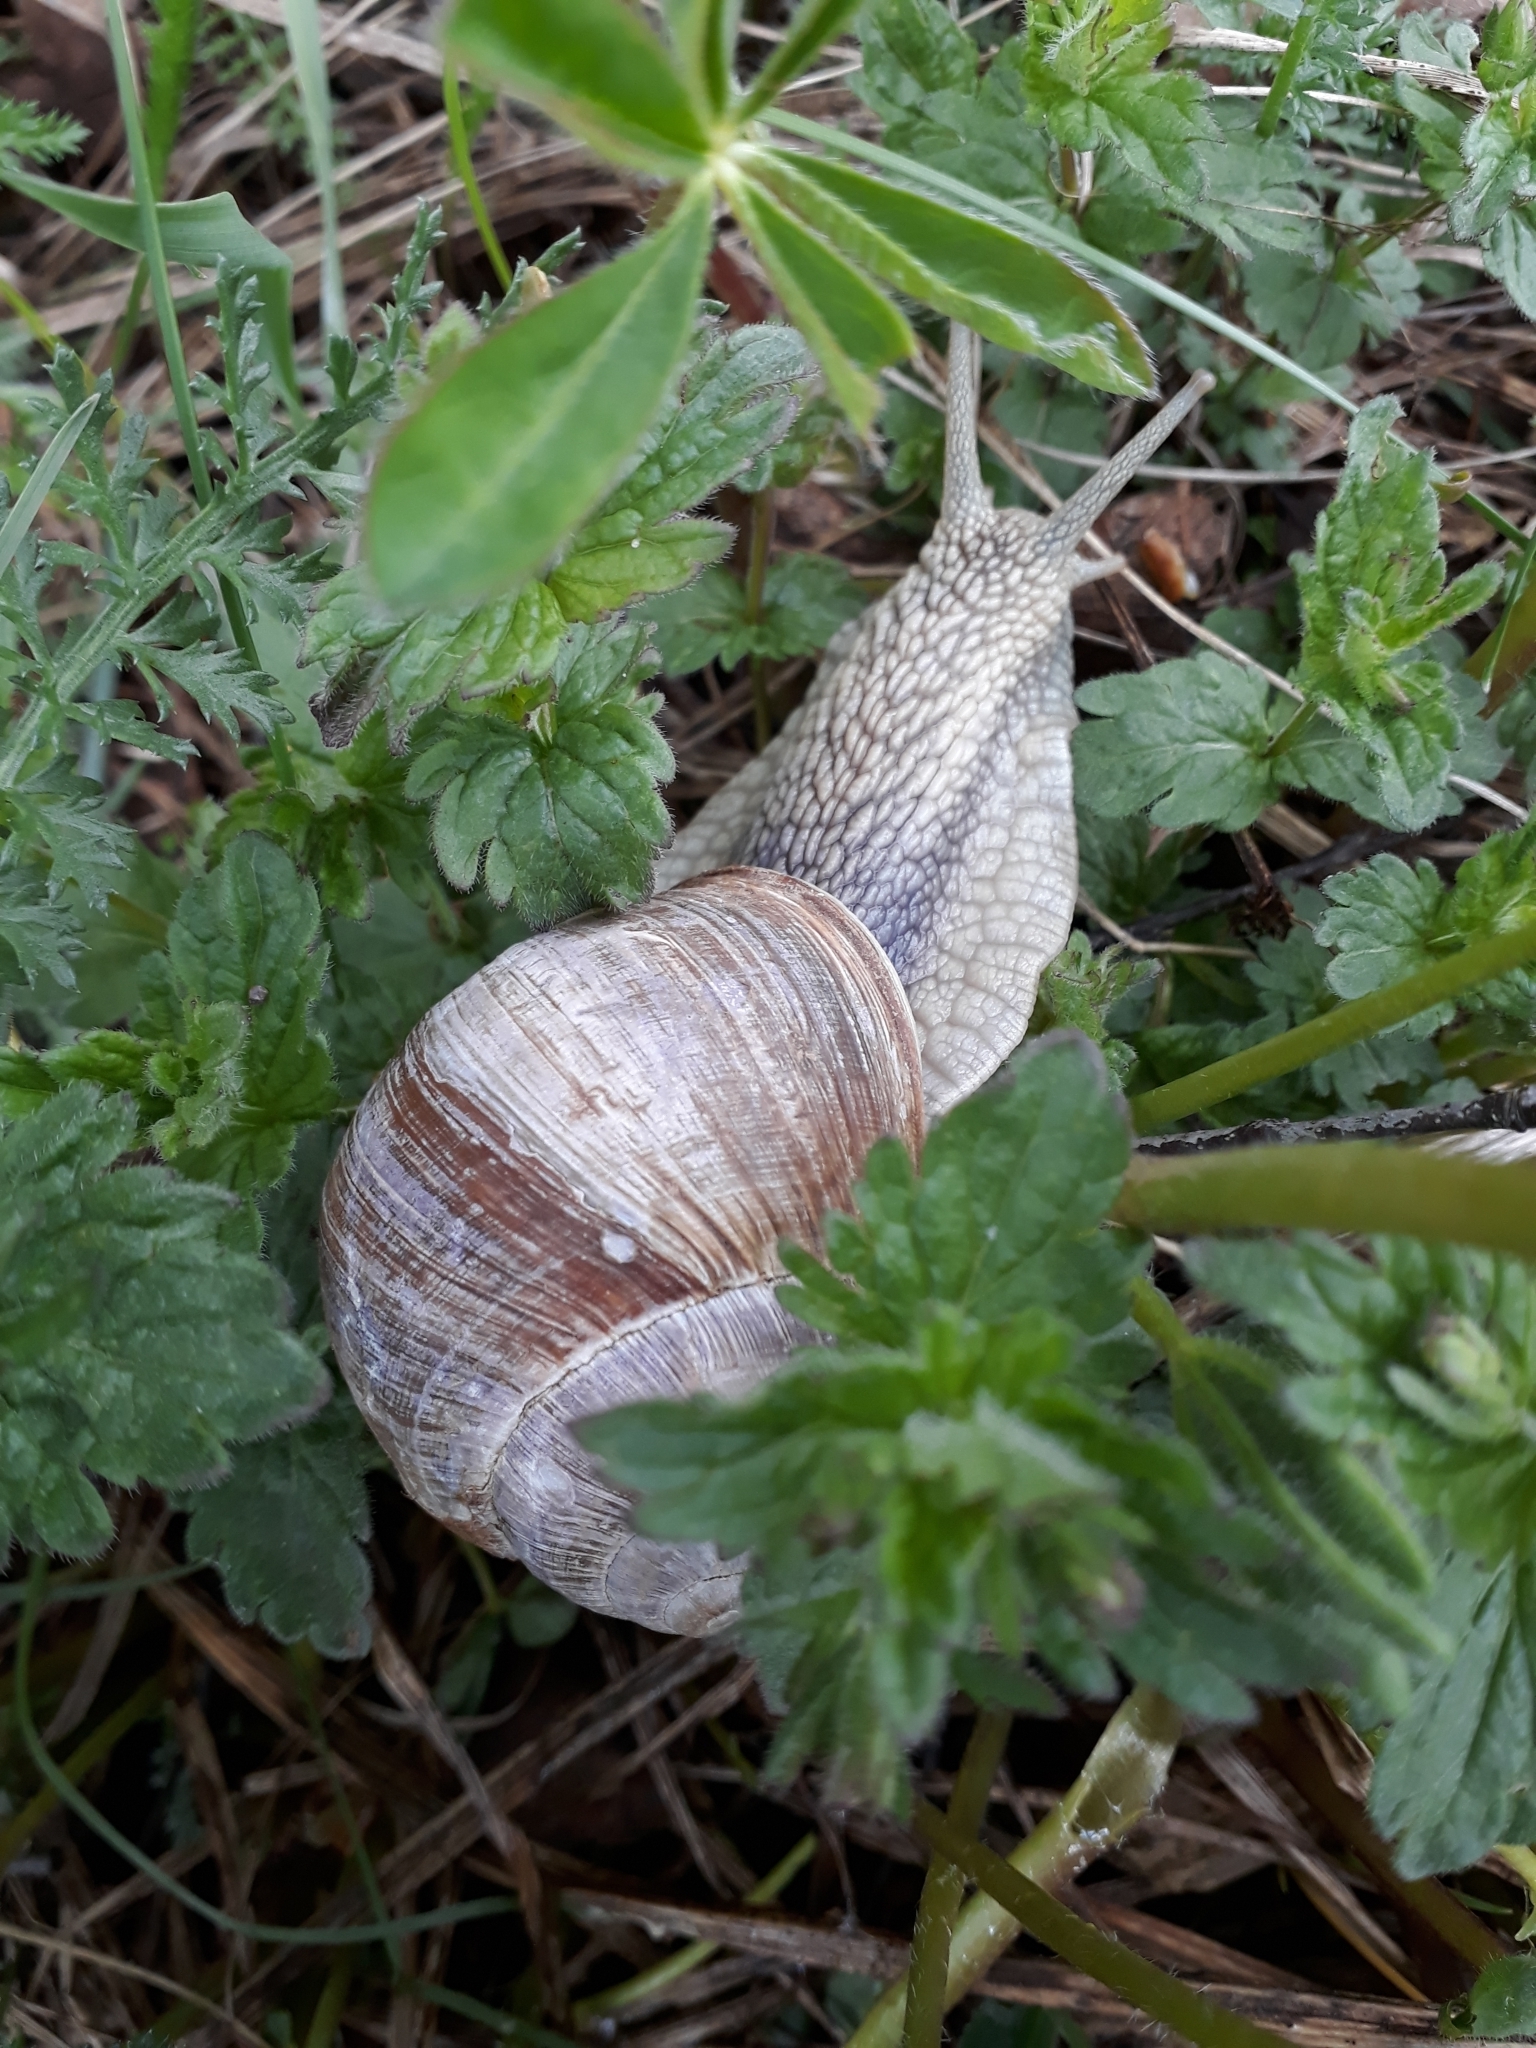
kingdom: Animalia
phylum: Mollusca
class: Gastropoda
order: Stylommatophora
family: Helicidae
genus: Helix
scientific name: Helix pomatia
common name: Roman snail
